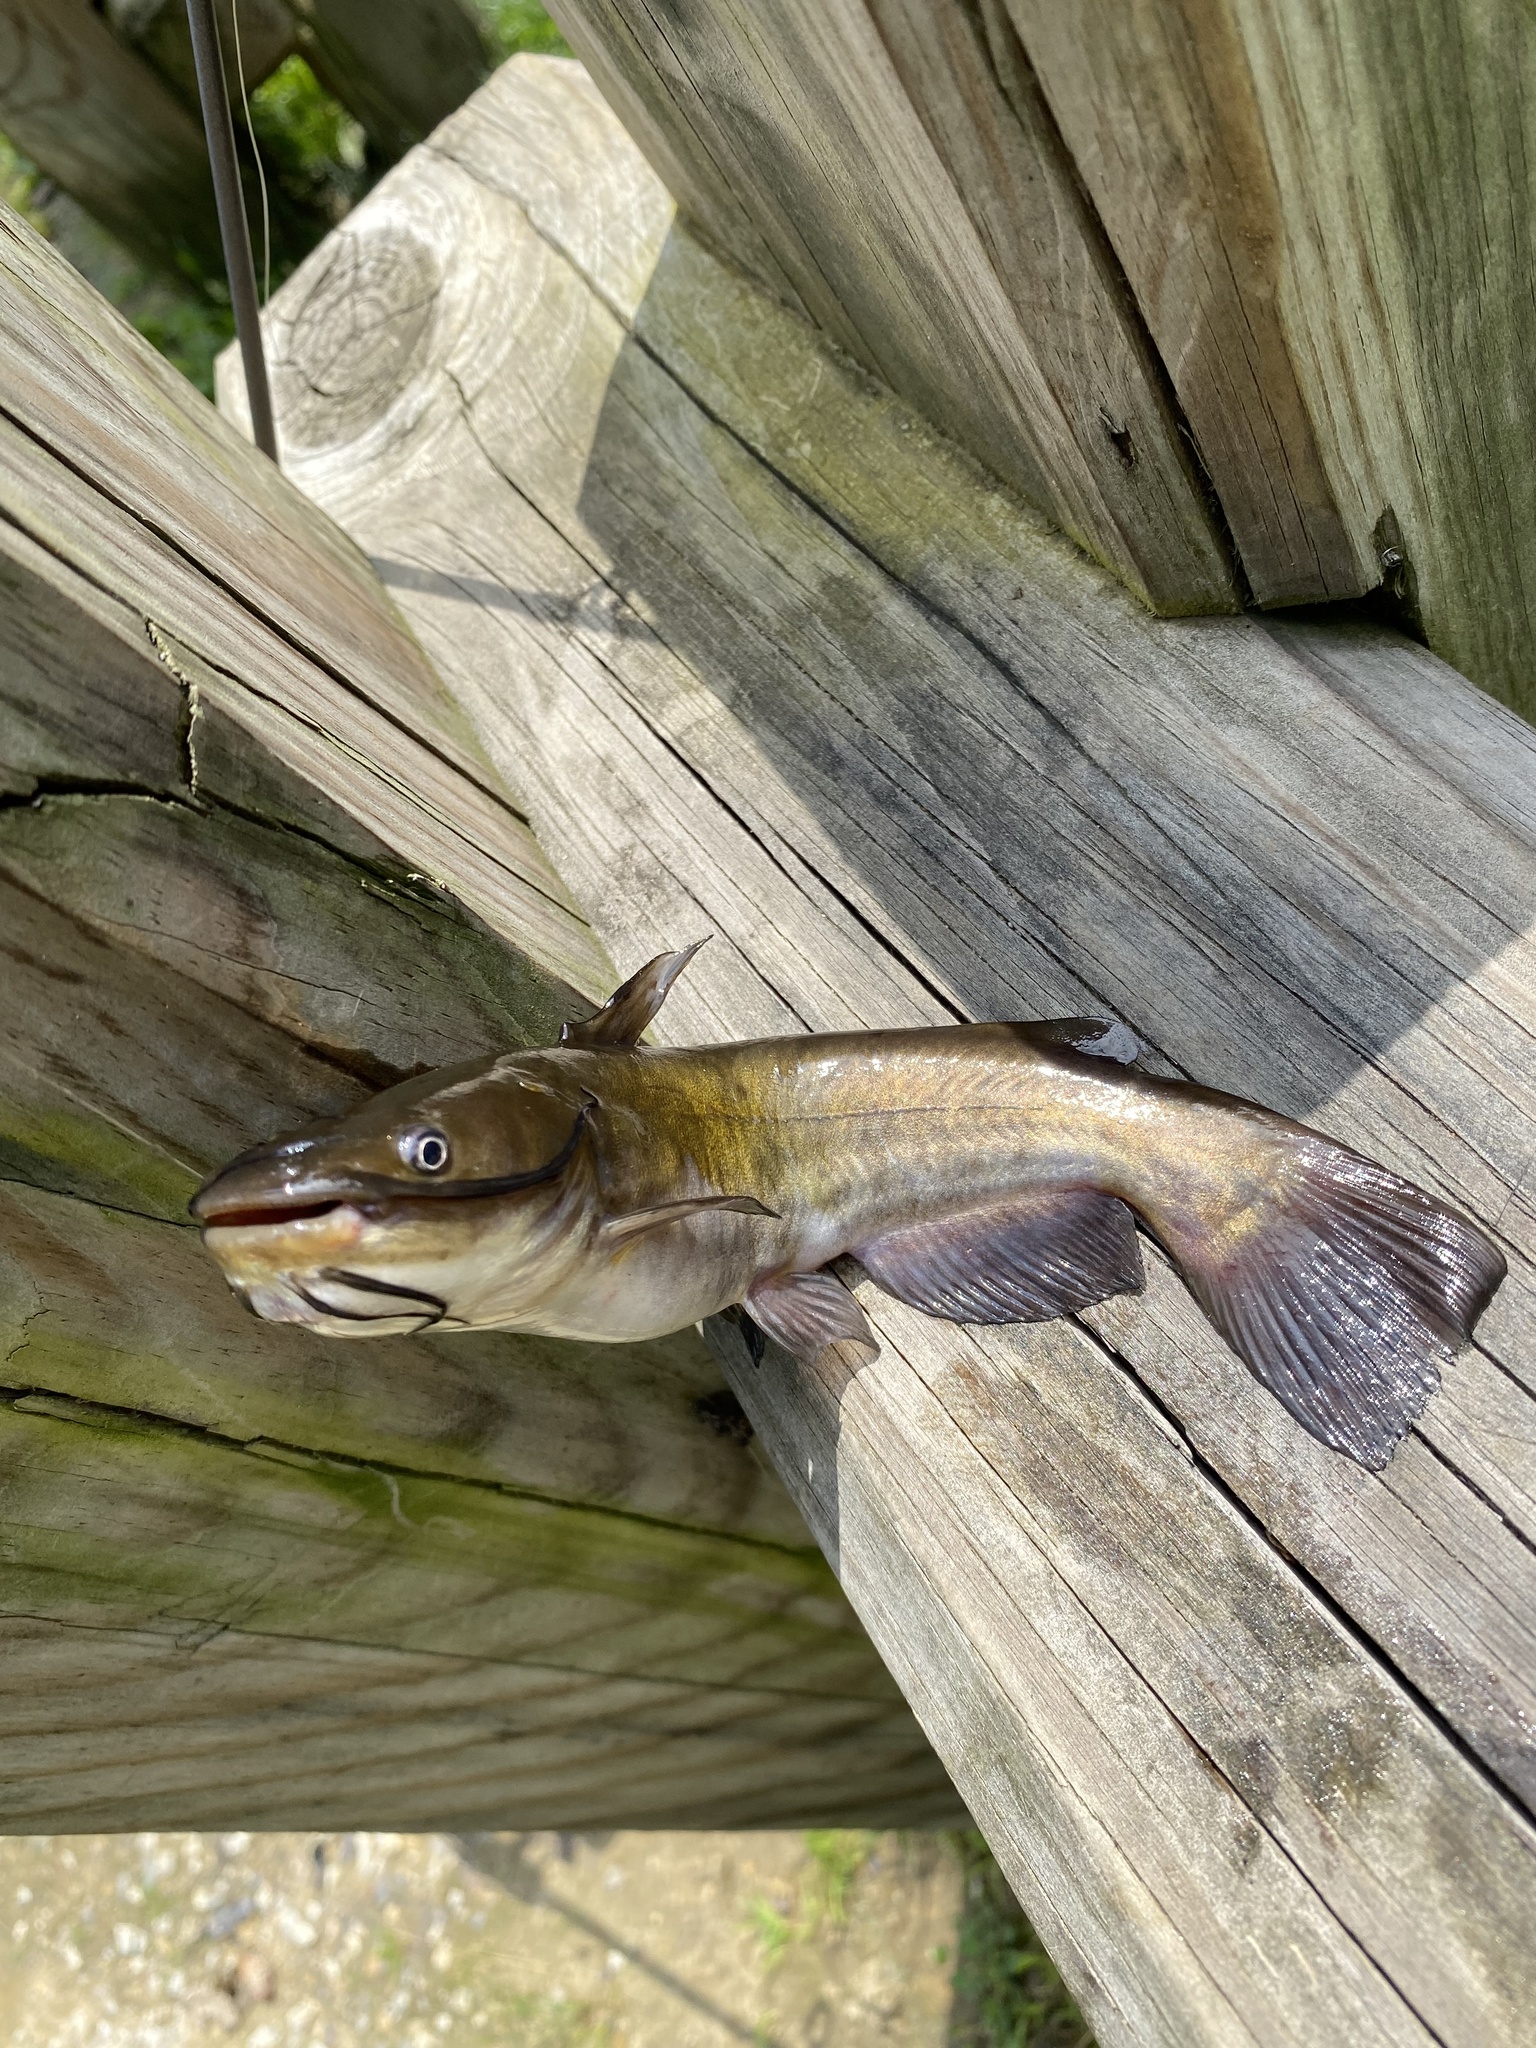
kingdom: Animalia
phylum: Chordata
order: Siluriformes
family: Ictaluridae
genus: Ameiurus
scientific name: Ameiurus nebulosus
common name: Brown bullhead
